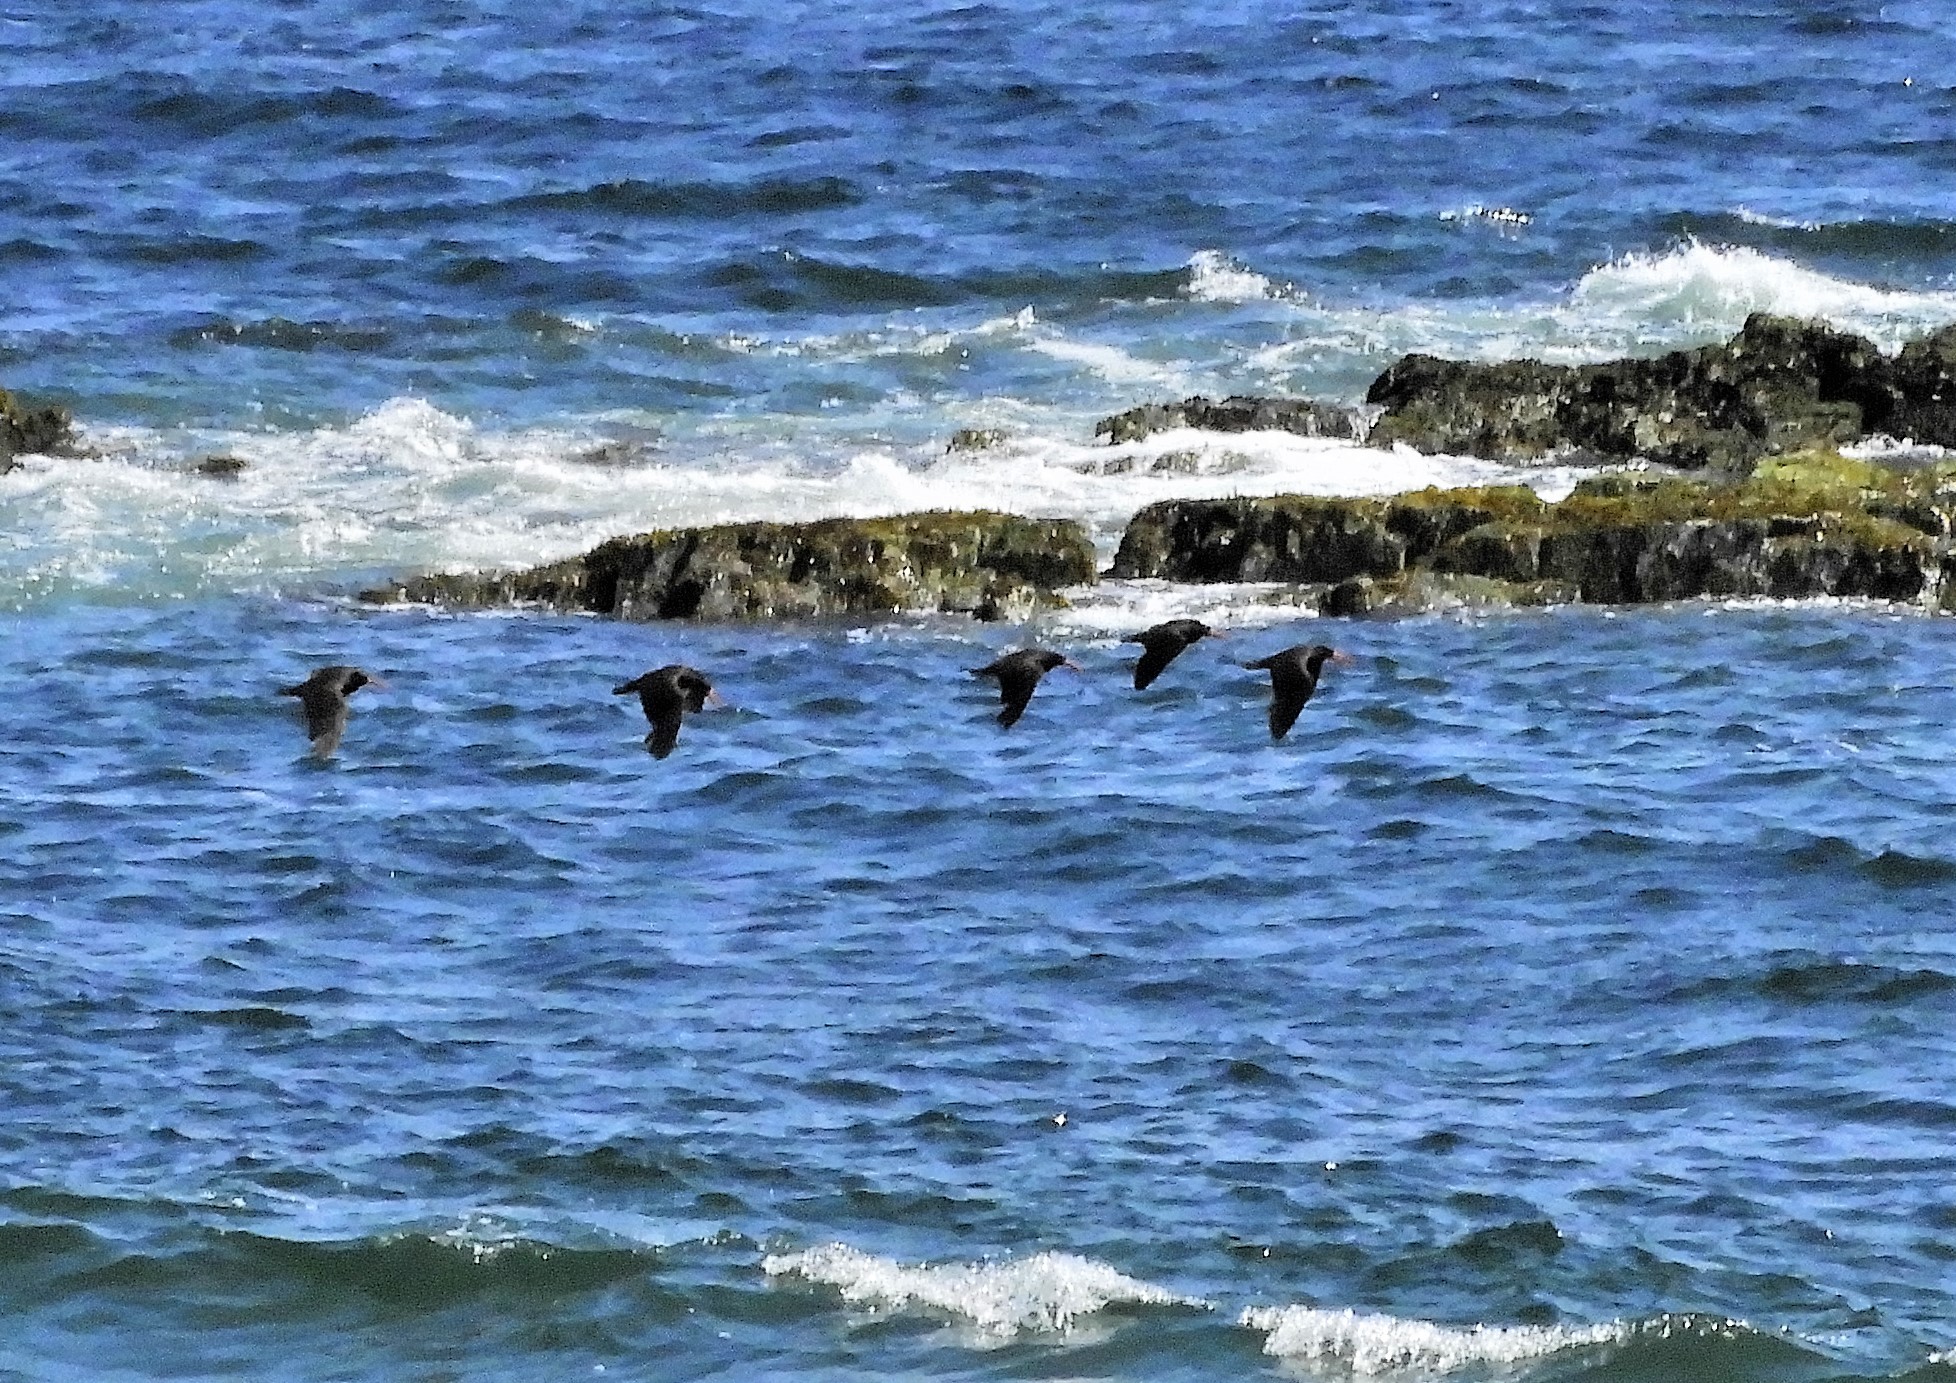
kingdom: Animalia
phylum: Chordata
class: Aves
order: Charadriiformes
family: Haematopodidae
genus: Haematopus
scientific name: Haematopus bachmani
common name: Black oystercatcher
